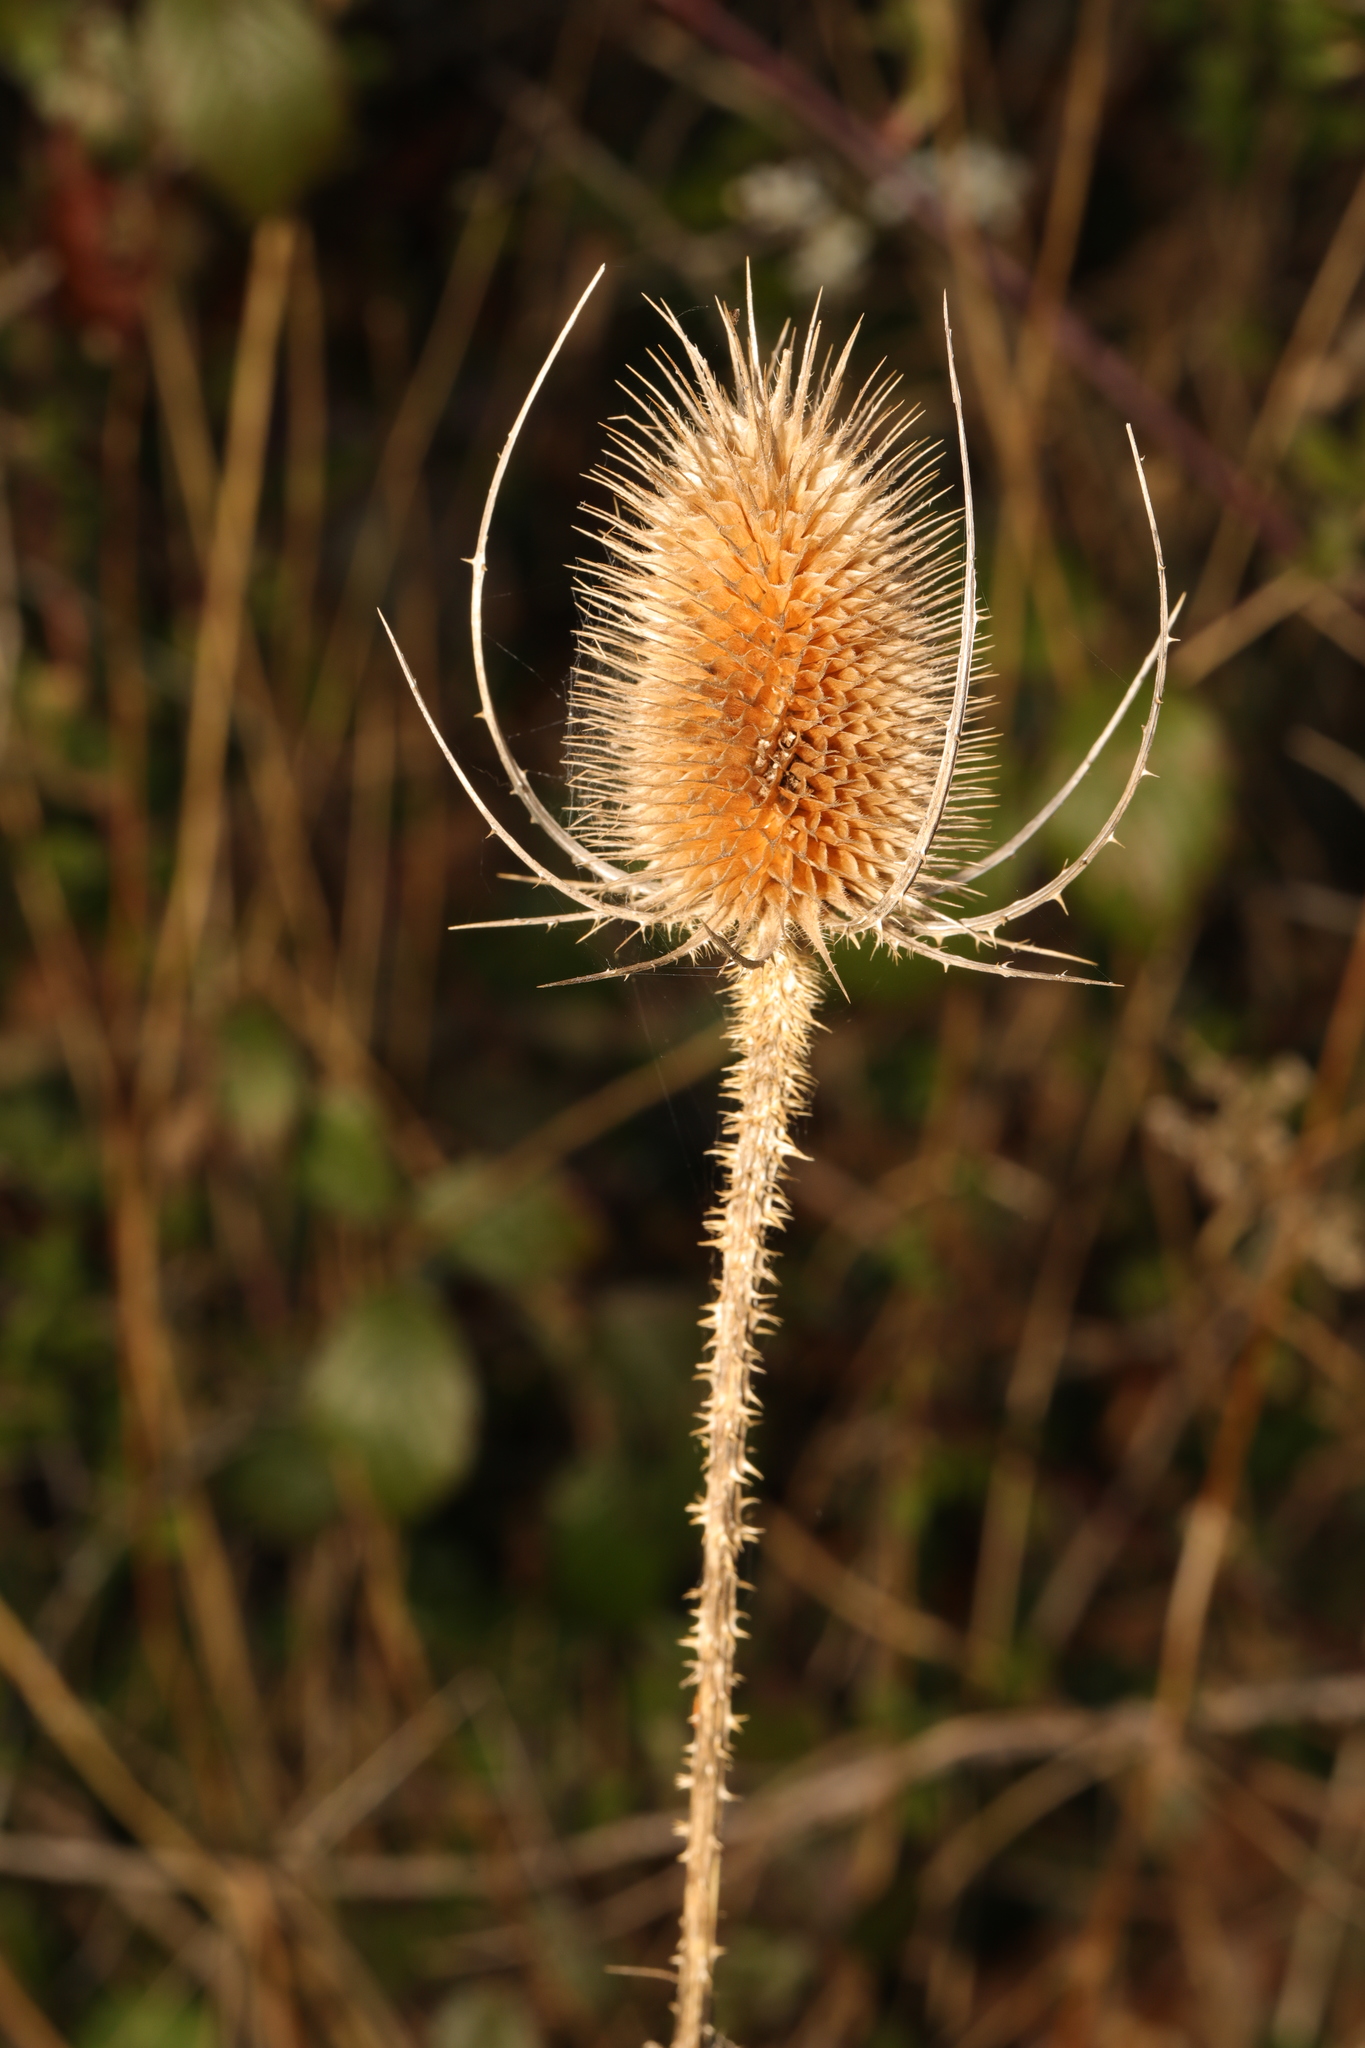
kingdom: Plantae
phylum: Tracheophyta
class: Magnoliopsida
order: Dipsacales
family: Caprifoliaceae
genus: Dipsacus
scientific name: Dipsacus fullonum
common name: Teasel
